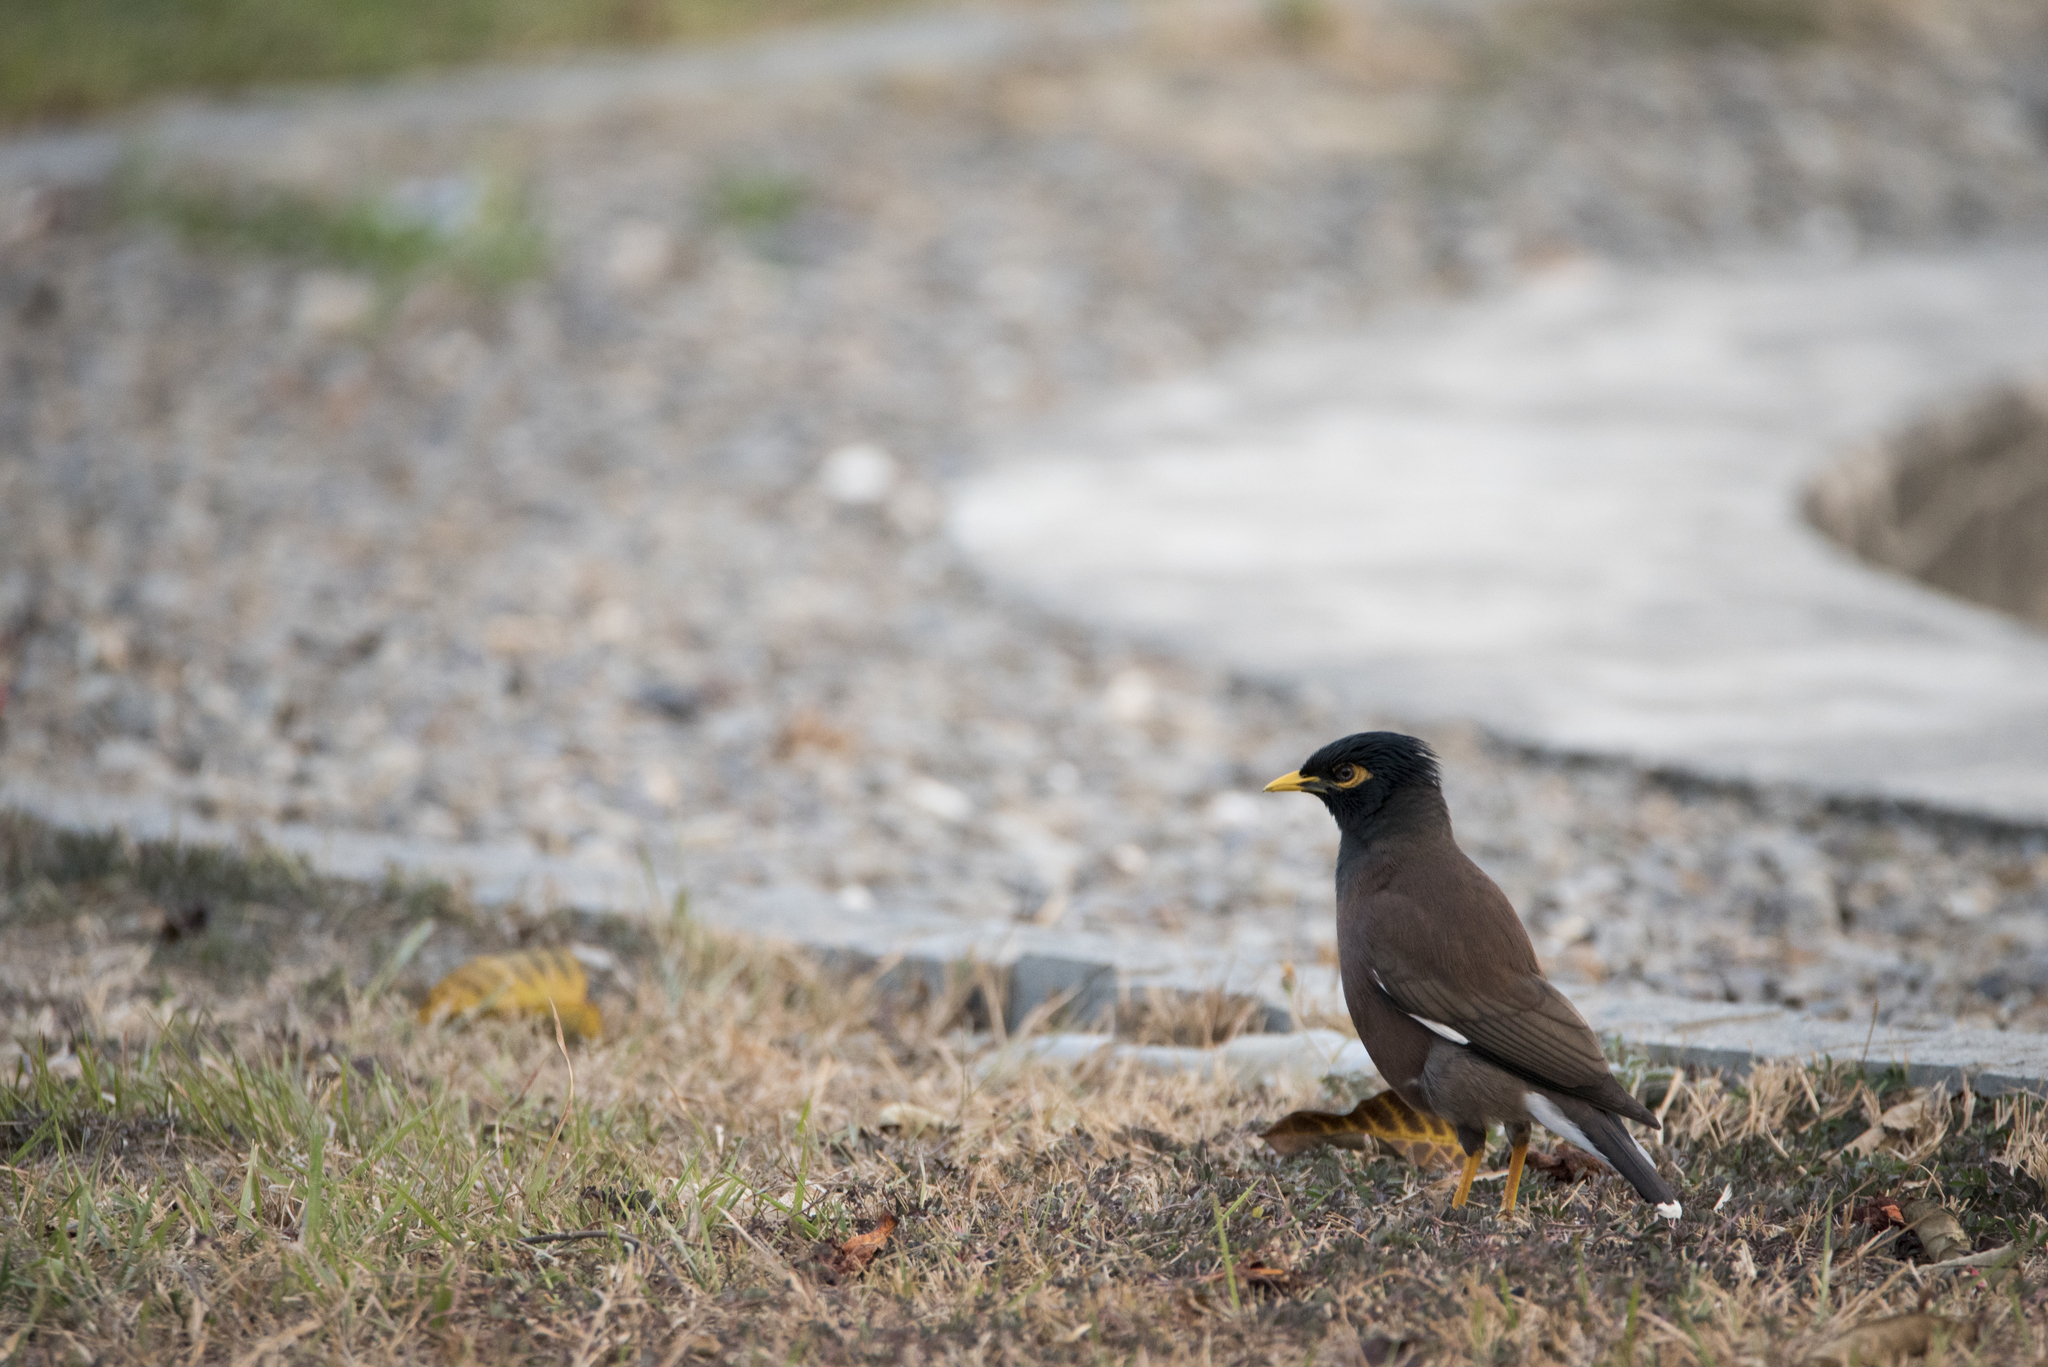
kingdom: Animalia
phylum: Chordata
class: Aves
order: Passeriformes
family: Sturnidae
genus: Acridotheres
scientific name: Acridotheres tristis
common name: Common myna
